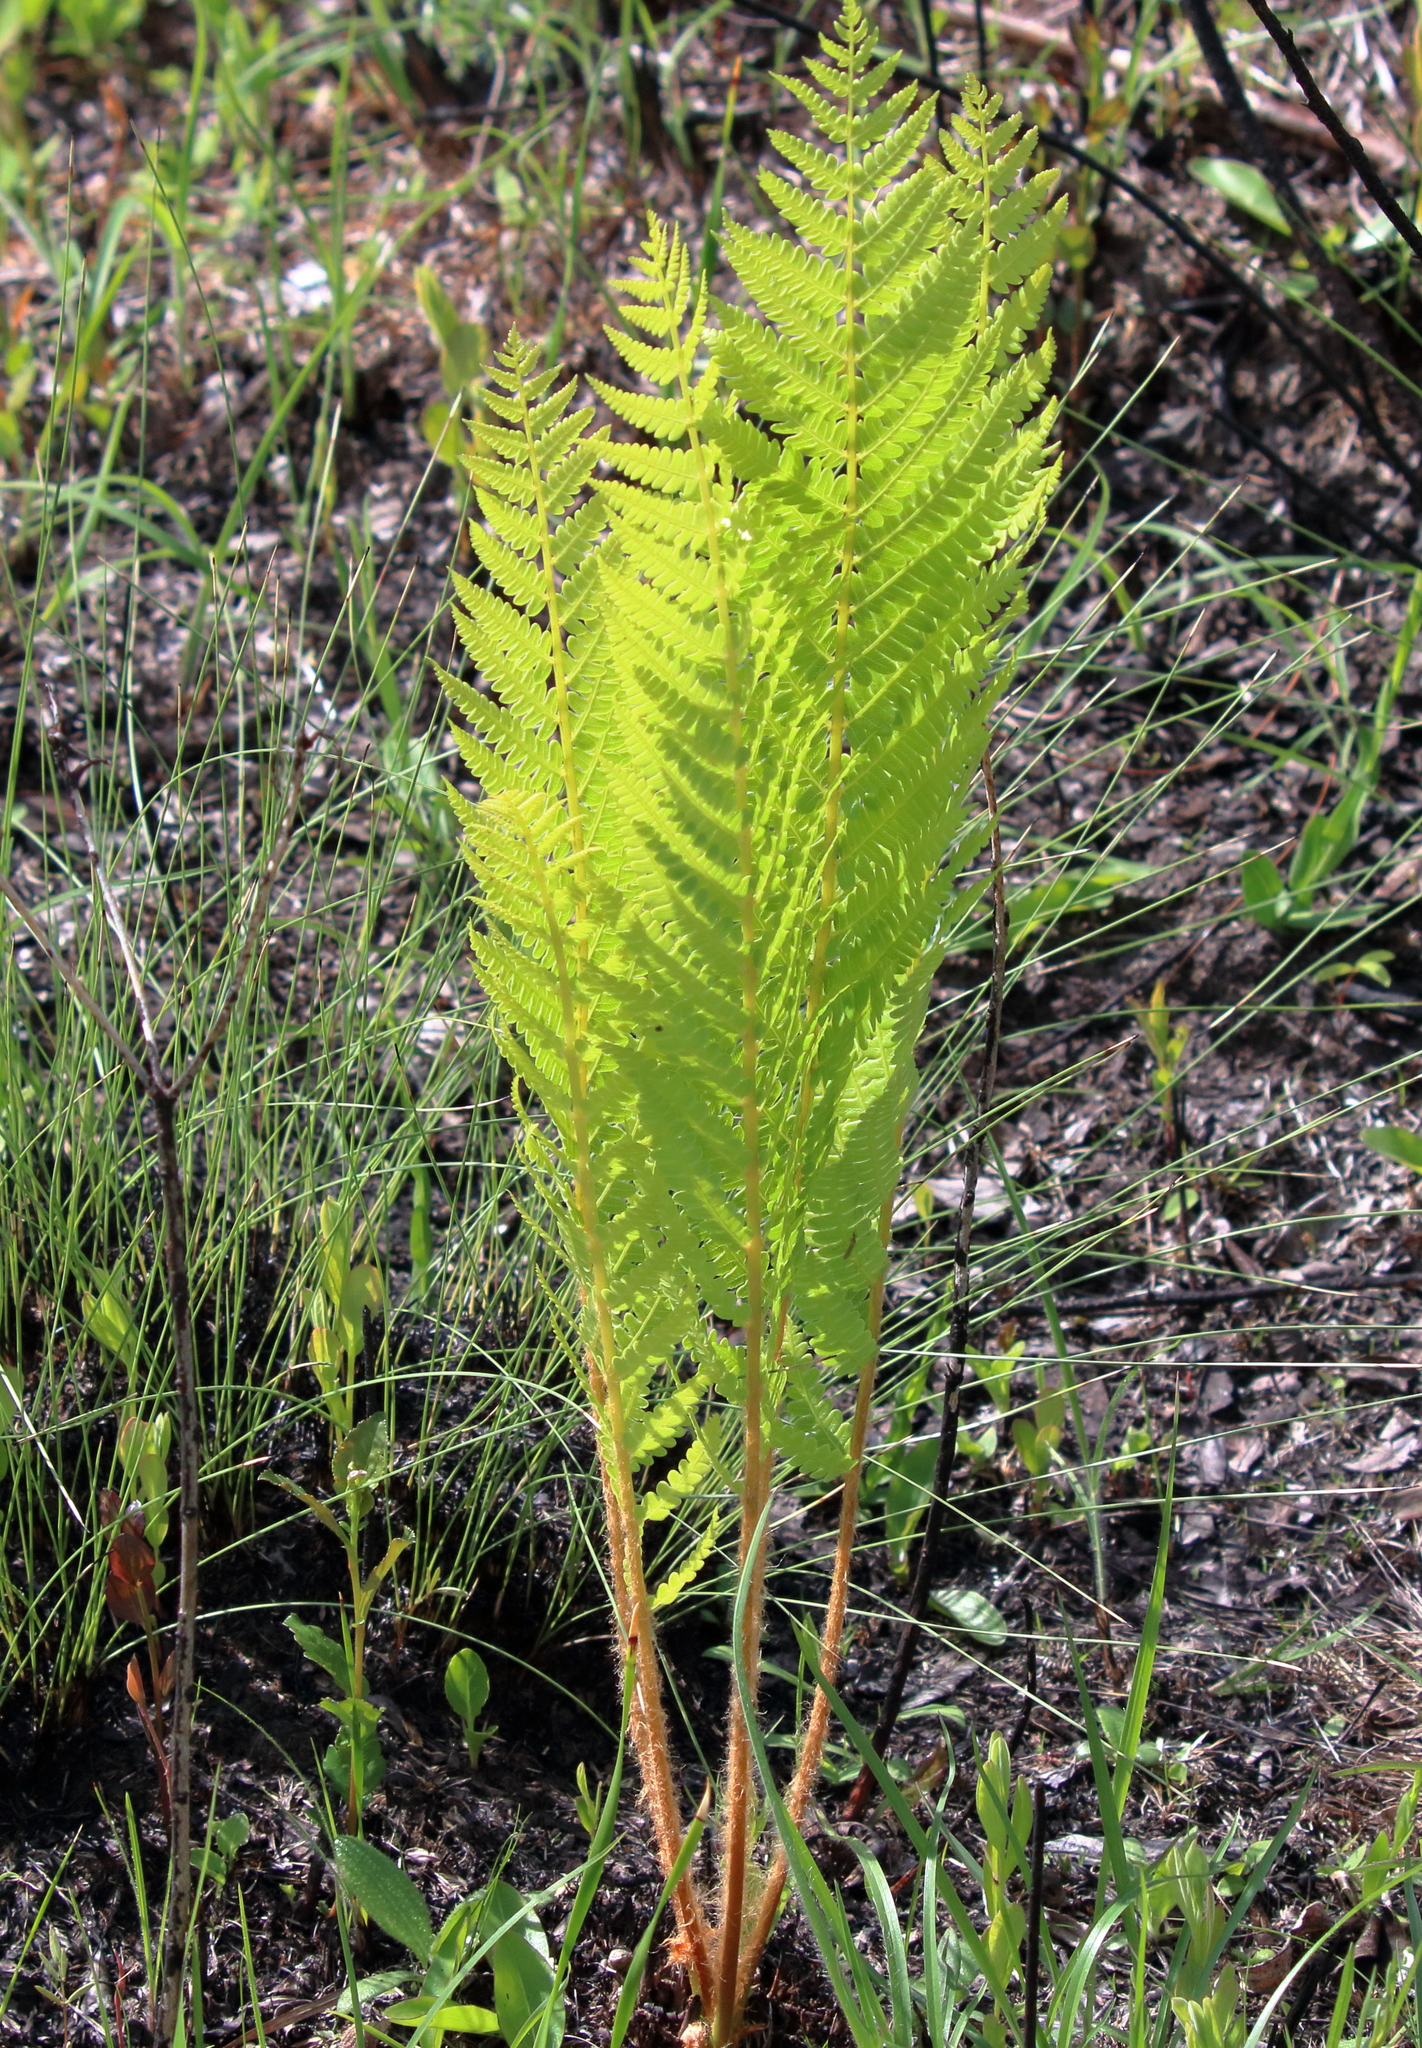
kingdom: Plantae
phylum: Tracheophyta
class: Polypodiopsida
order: Osmundales
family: Osmundaceae
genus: Osmundastrum
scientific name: Osmundastrum cinnamomeum
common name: Cinnamon fern
